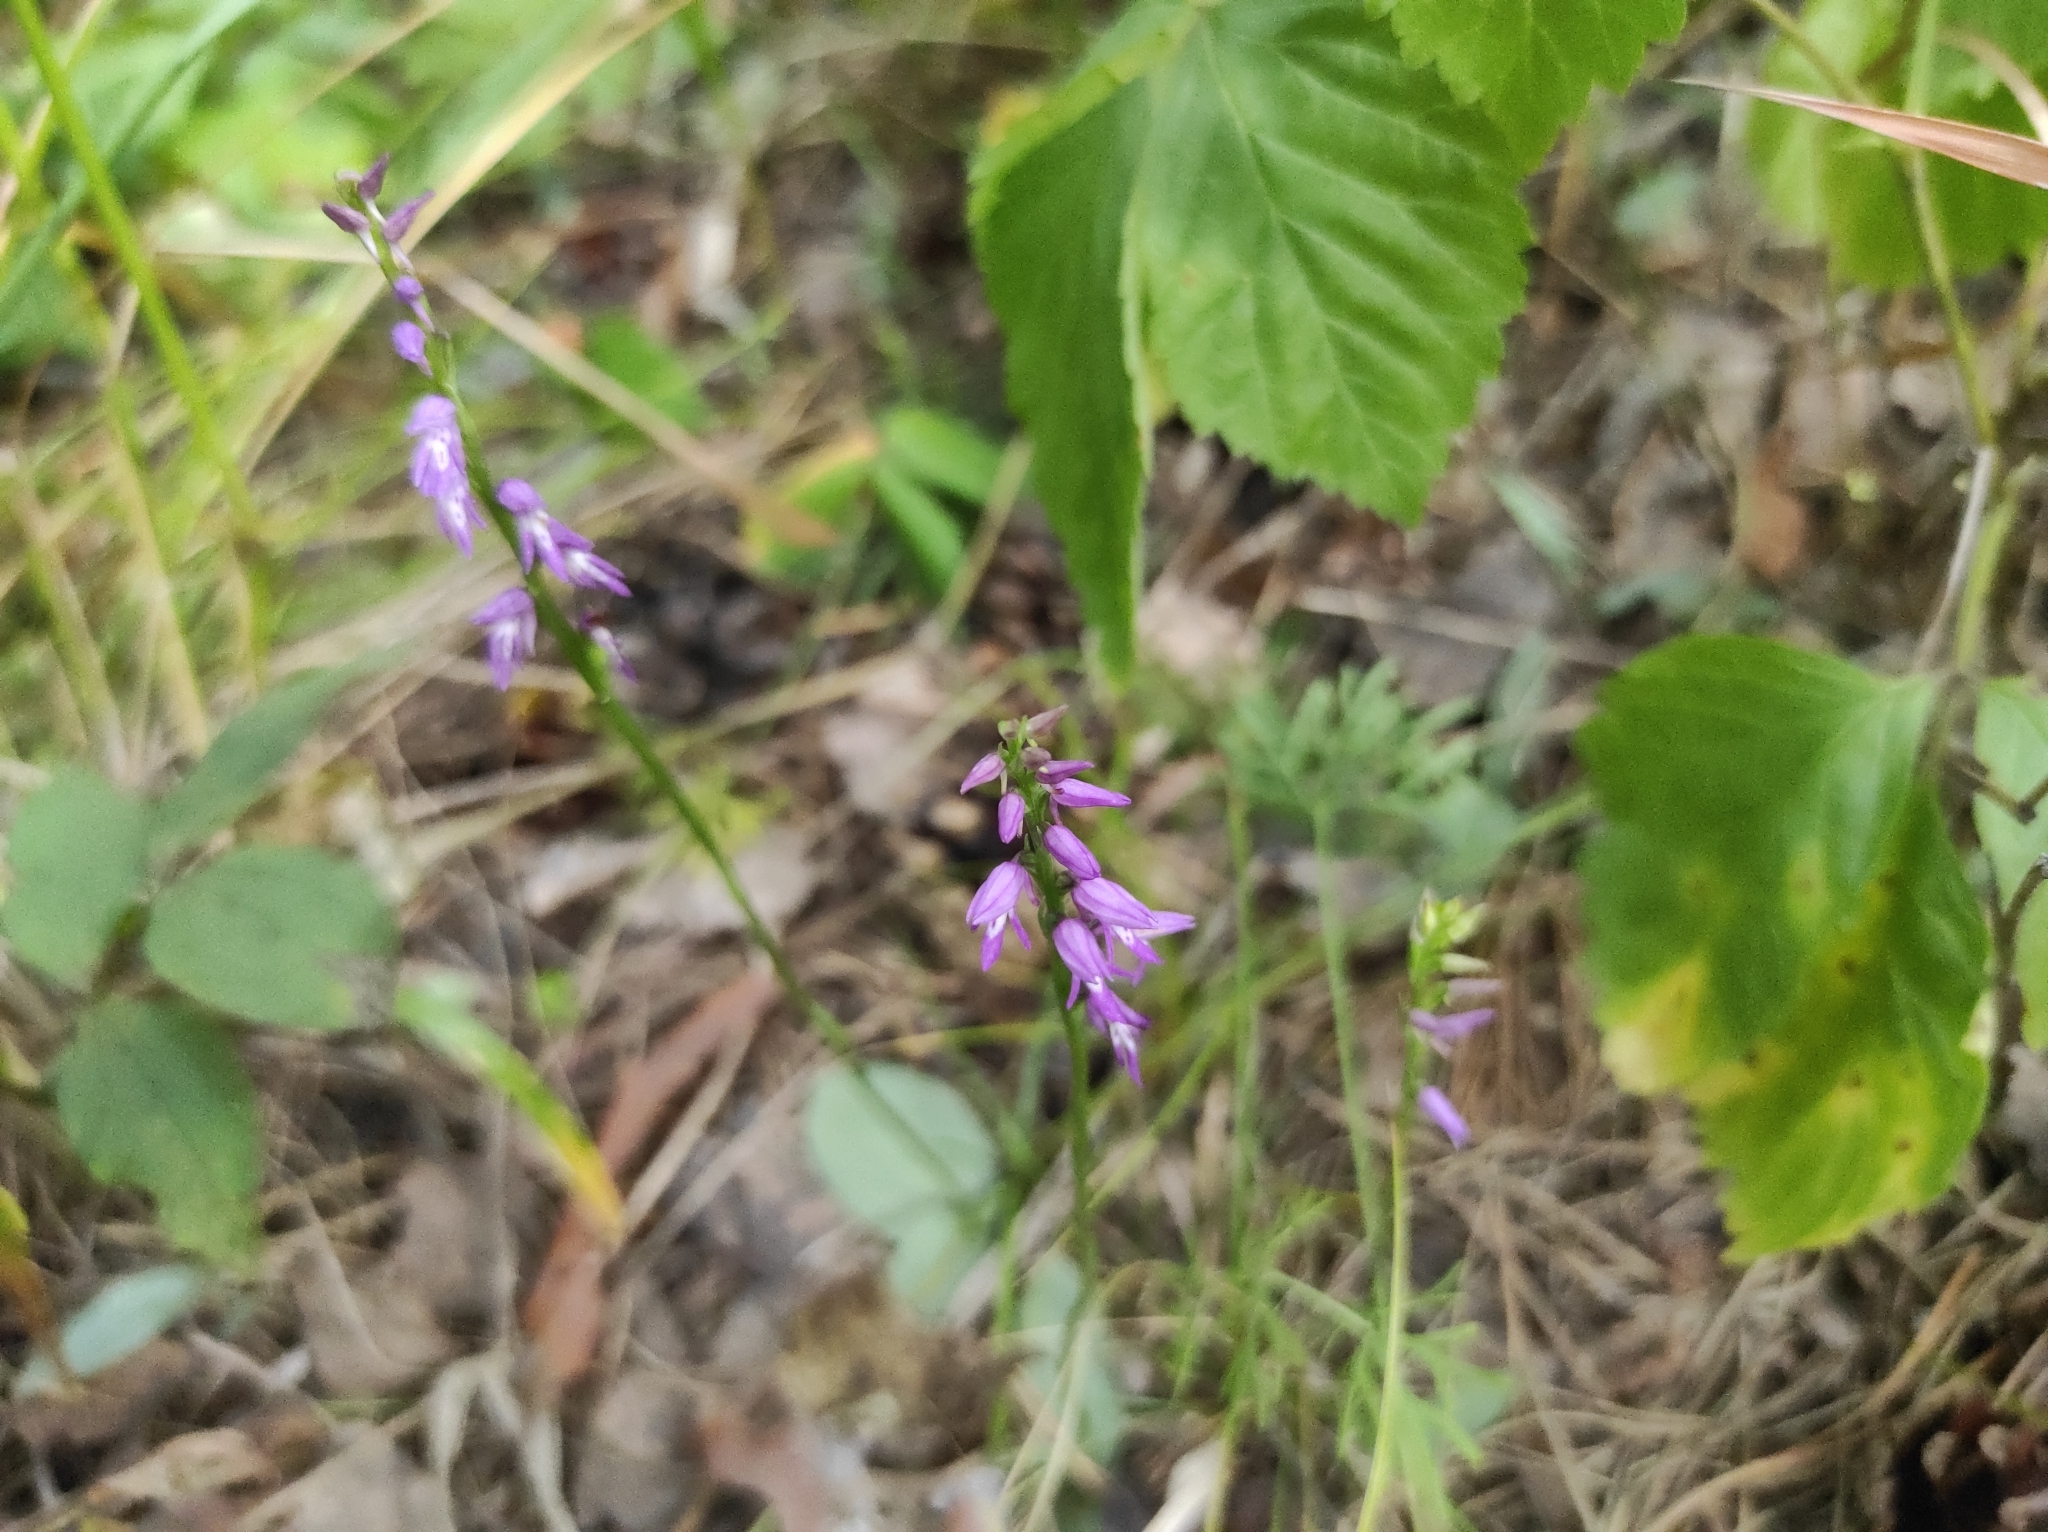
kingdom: Plantae
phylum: Tracheophyta
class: Liliopsida
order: Asparagales
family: Orchidaceae
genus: Hemipilia
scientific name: Hemipilia cucullata
